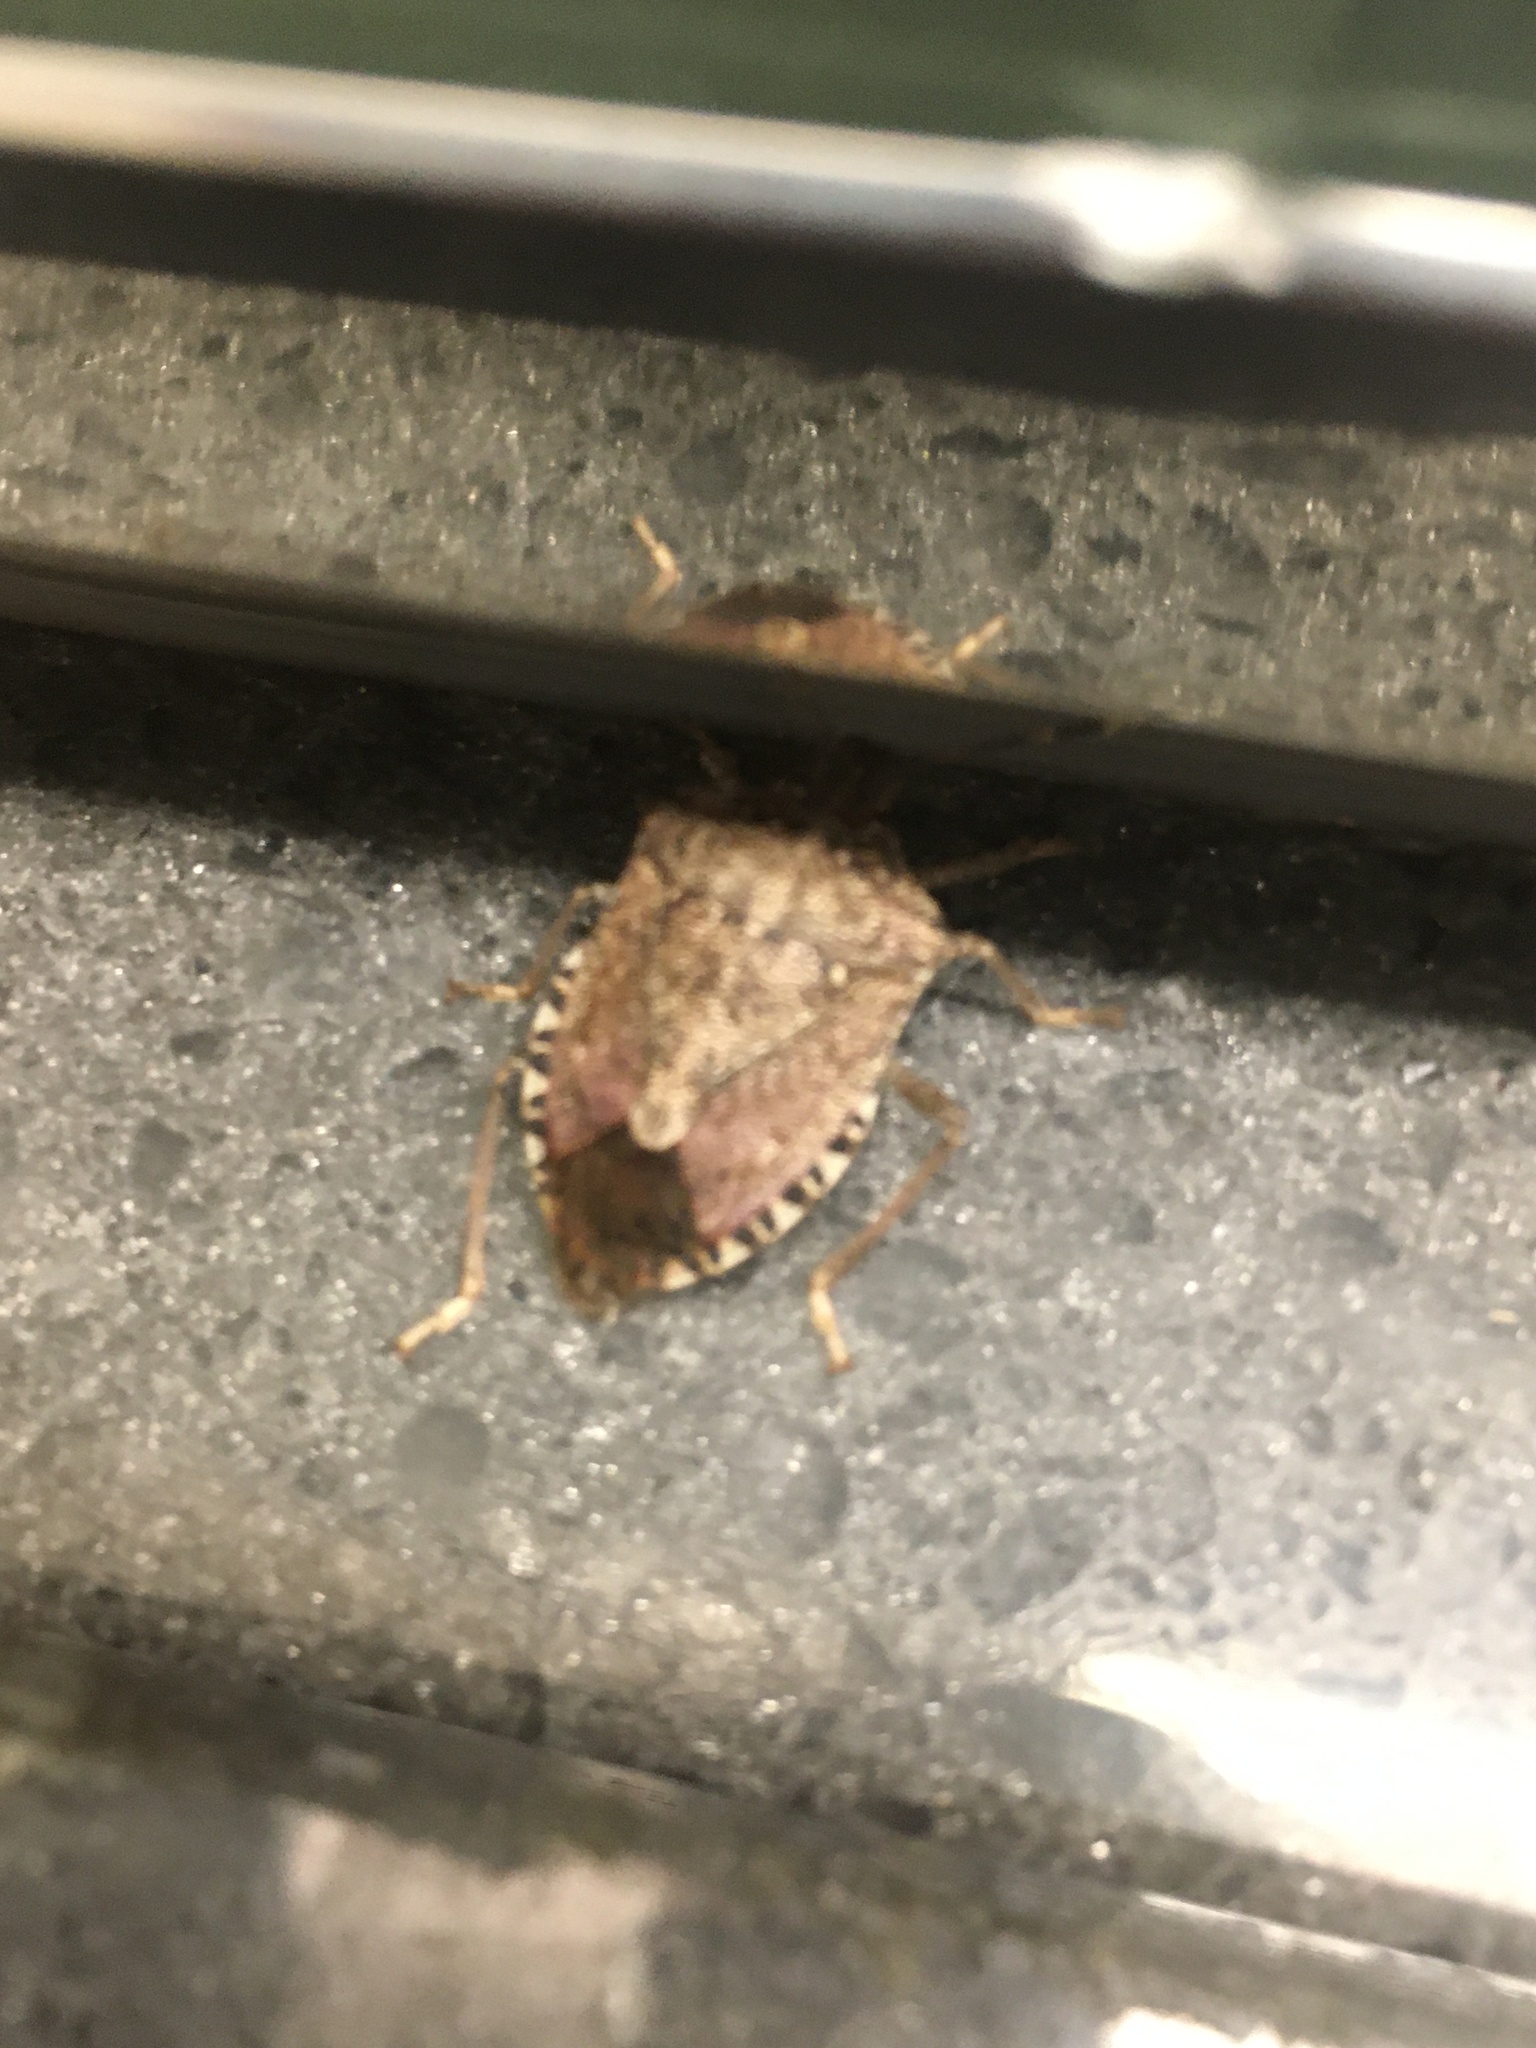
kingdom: Animalia
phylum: Arthropoda
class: Insecta
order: Hemiptera
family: Pentatomidae
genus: Halyomorpha
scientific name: Halyomorpha halys
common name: Brown marmorated stink bug
